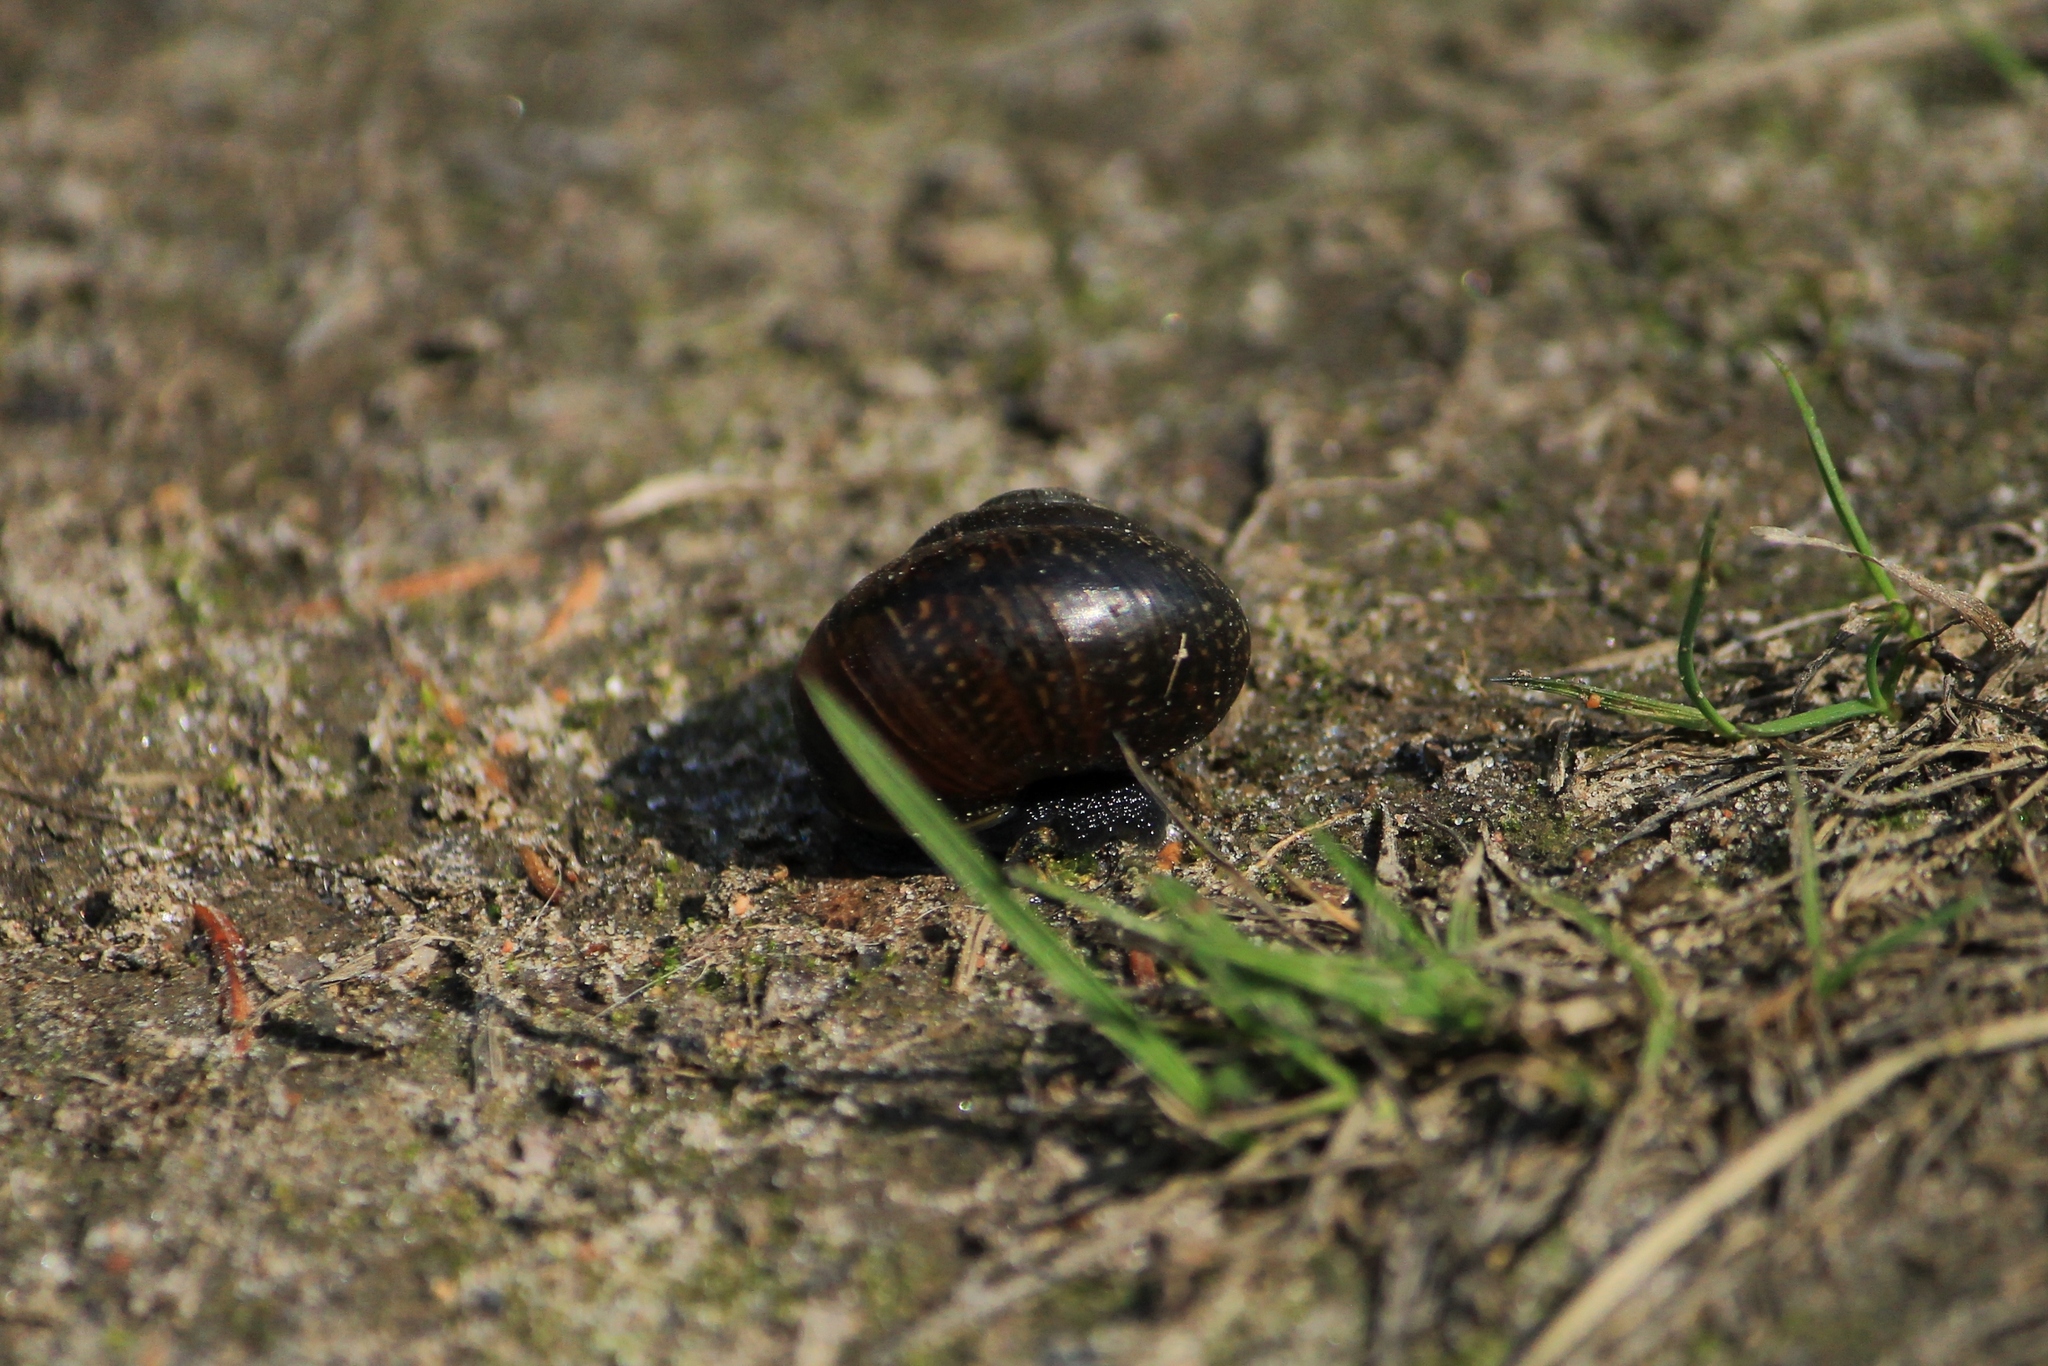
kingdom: Animalia
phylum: Mollusca
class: Gastropoda
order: Stylommatophora
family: Helicidae
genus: Arianta
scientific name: Arianta arbustorum
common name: Copse snail
